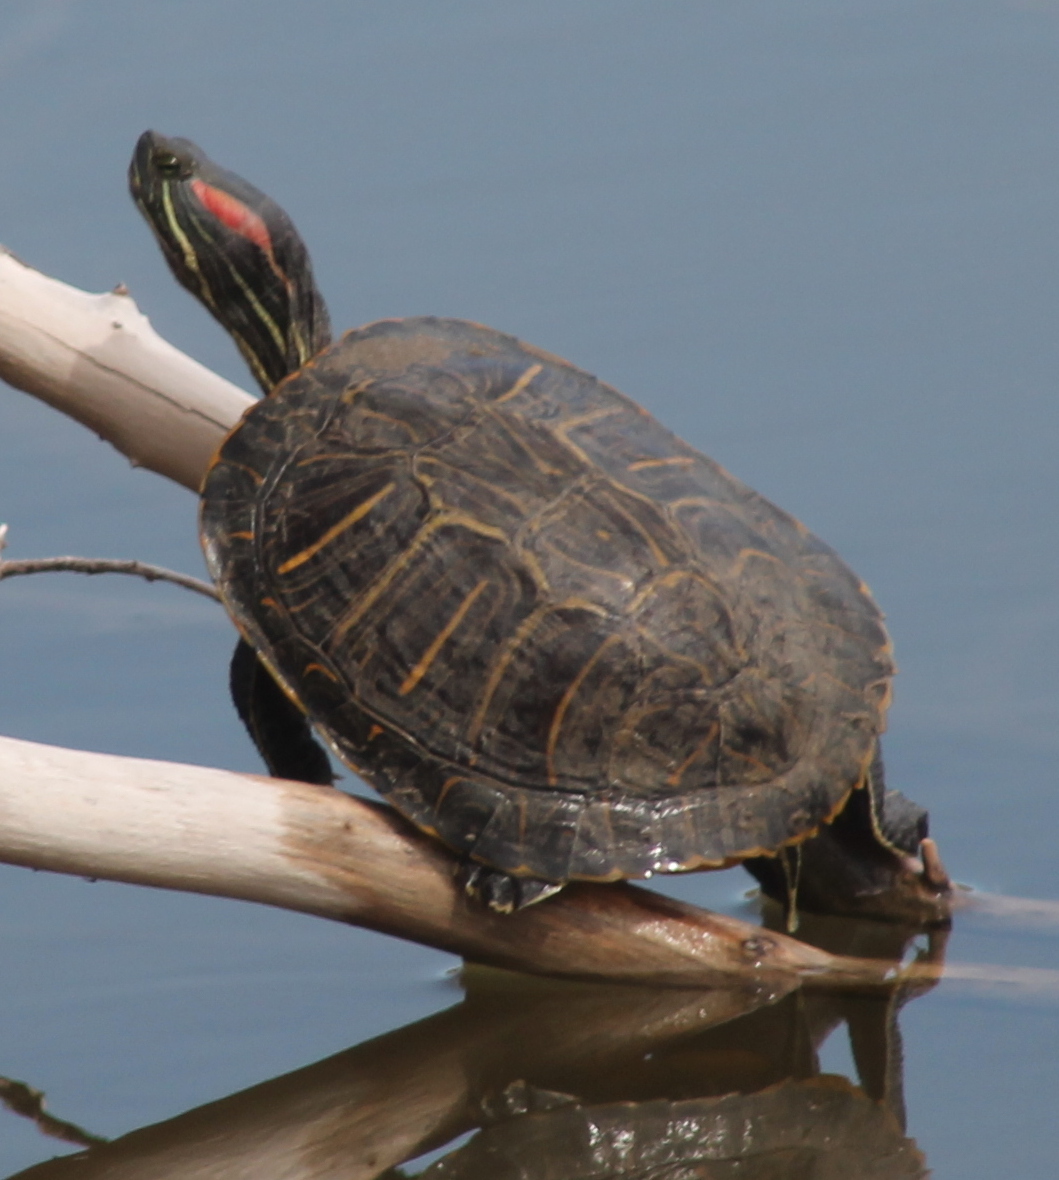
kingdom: Animalia
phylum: Chordata
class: Testudines
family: Emydidae
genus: Trachemys
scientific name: Trachemys scripta
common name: Slider
